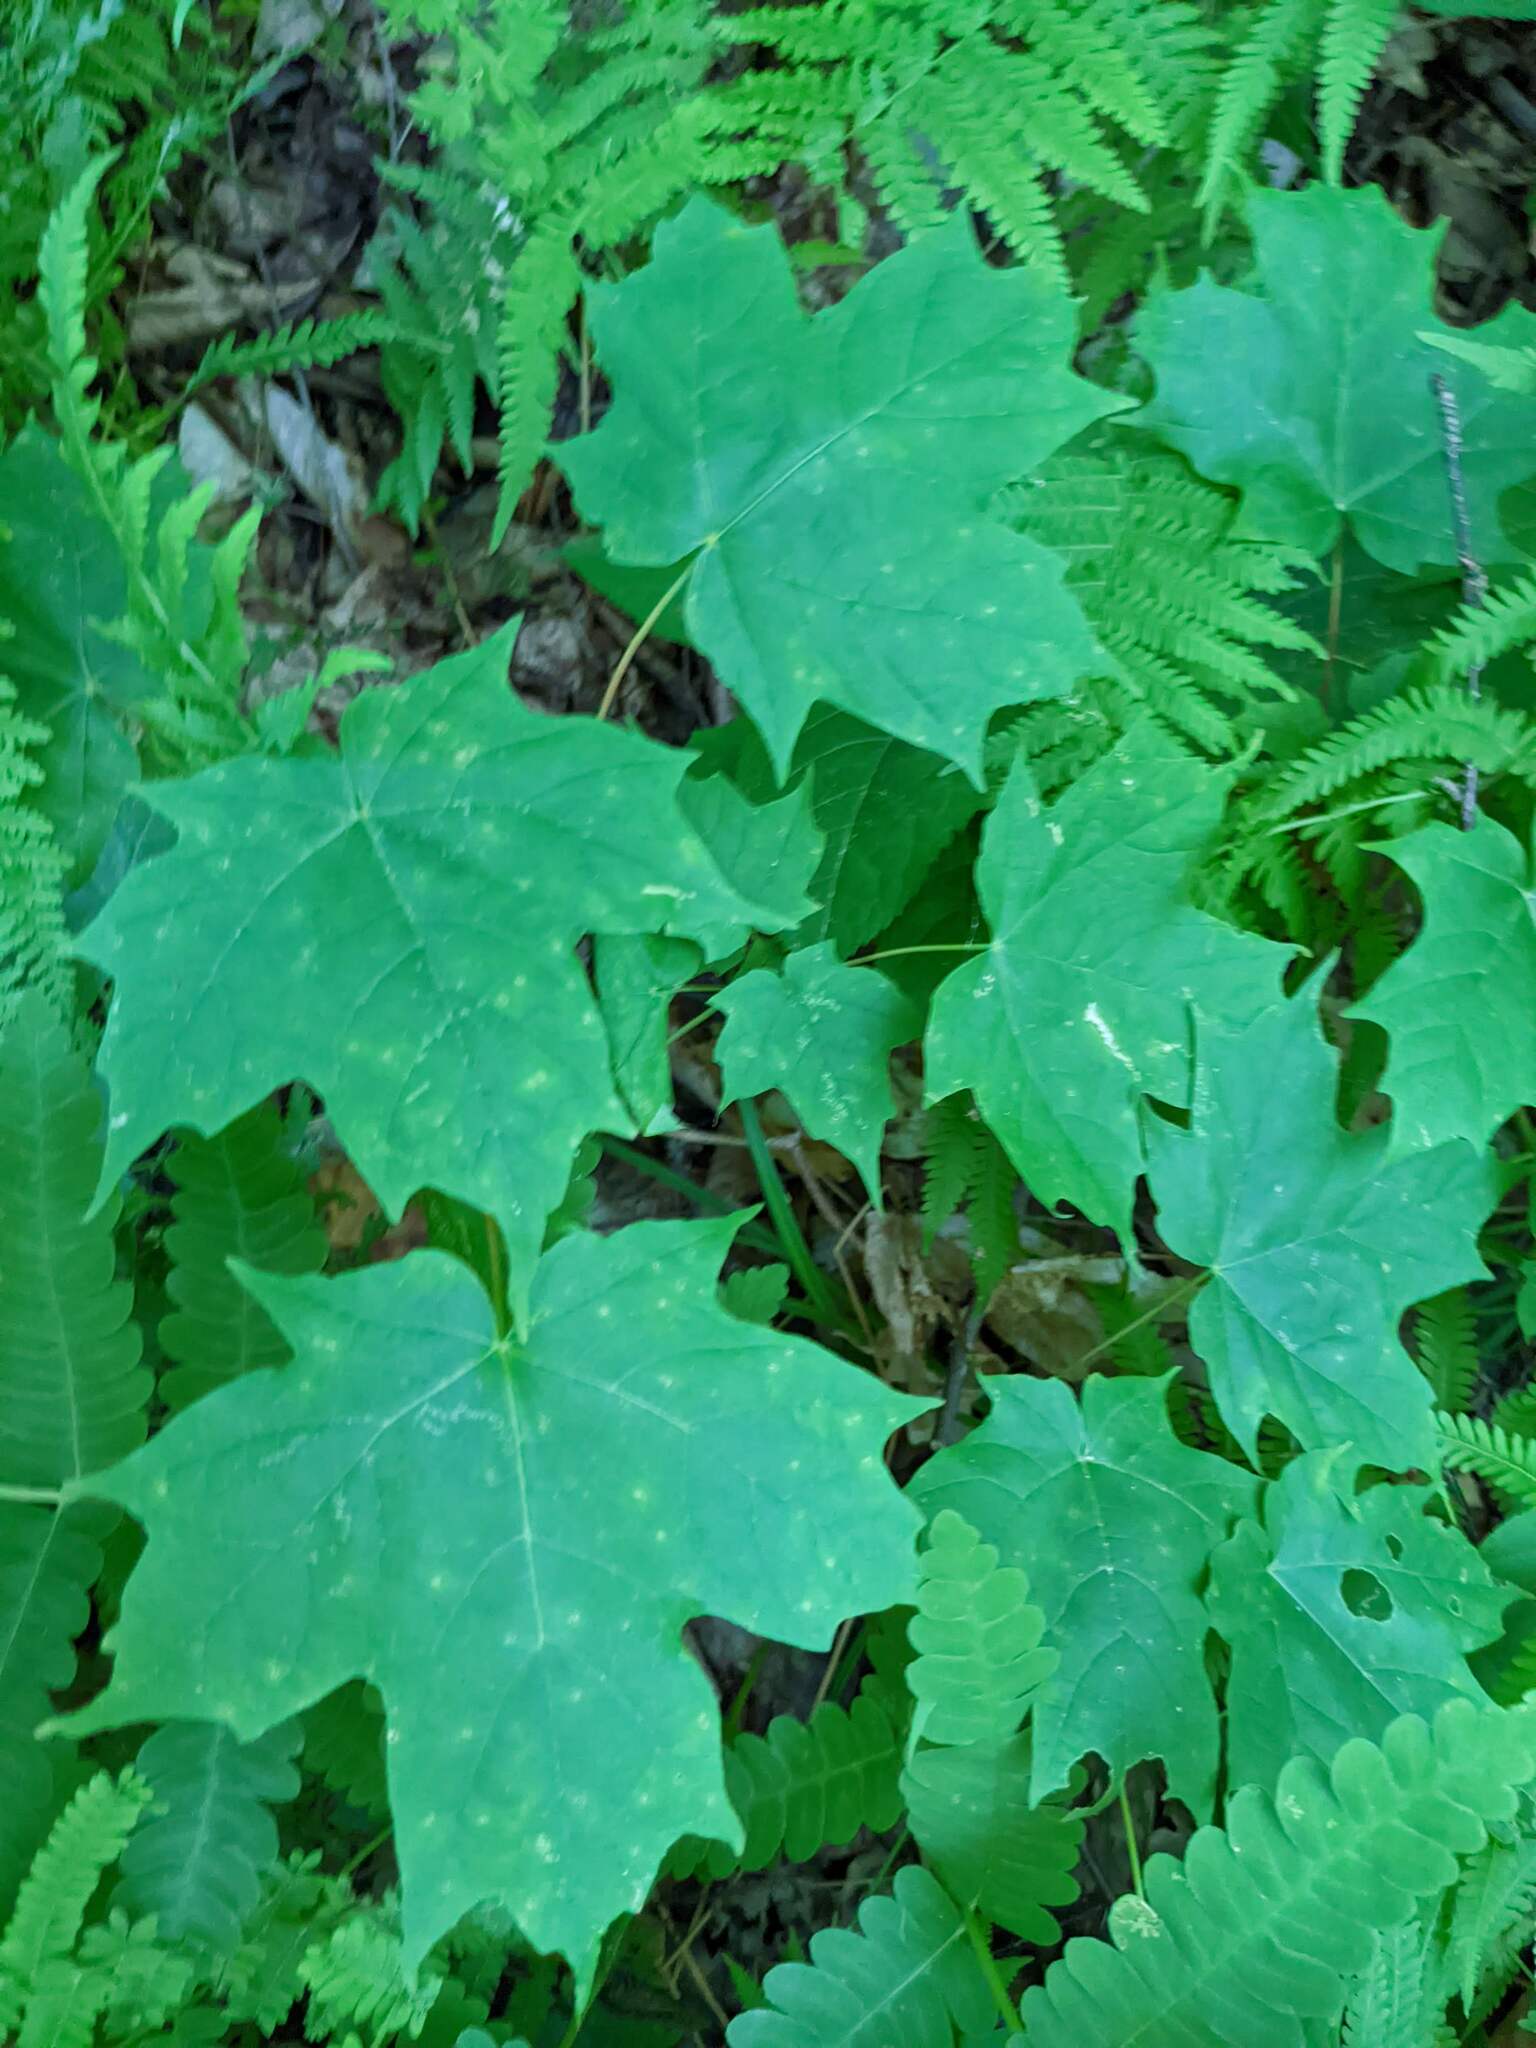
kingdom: Plantae
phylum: Tracheophyta
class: Magnoliopsida
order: Sapindales
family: Sapindaceae
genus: Acer
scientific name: Acer saccharum
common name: Sugar maple
